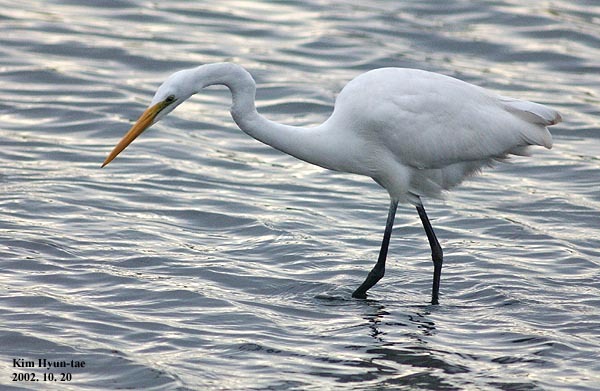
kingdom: Animalia
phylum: Chordata
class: Aves
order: Pelecaniformes
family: Ardeidae
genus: Ardea
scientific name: Ardea alba
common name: Great egret
